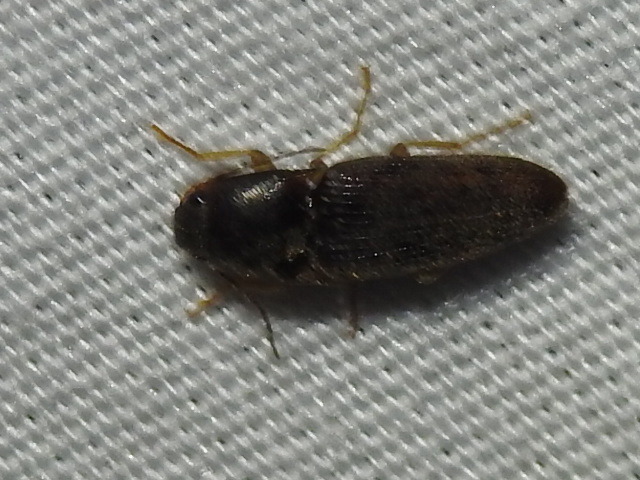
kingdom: Animalia
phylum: Arthropoda
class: Insecta
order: Coleoptera
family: Elateridae
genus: Monocrepidius
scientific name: Monocrepidius
